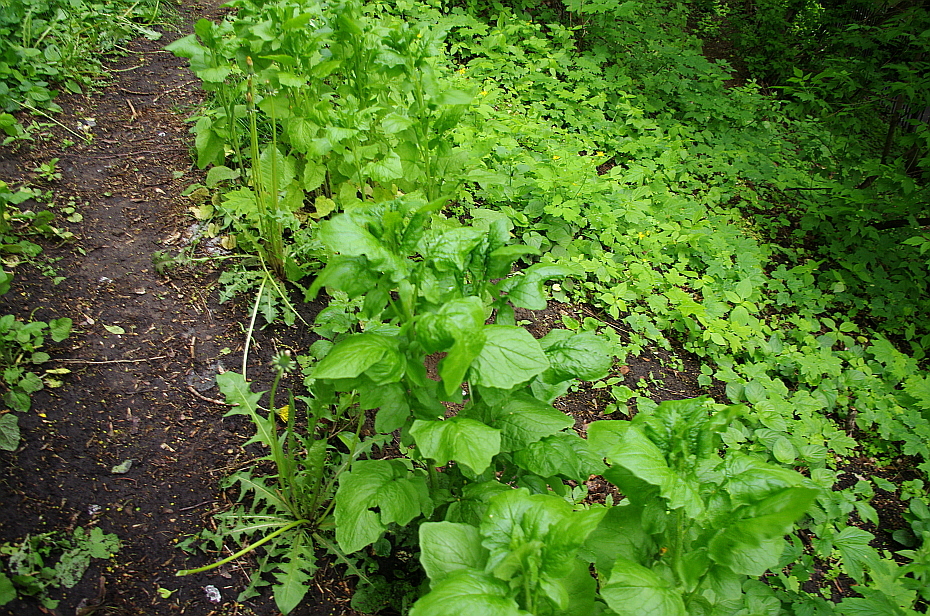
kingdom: Plantae
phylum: Tracheophyta
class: Magnoliopsida
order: Asterales
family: Asteraceae
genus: Lapsana
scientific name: Lapsana communis
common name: Nipplewort
